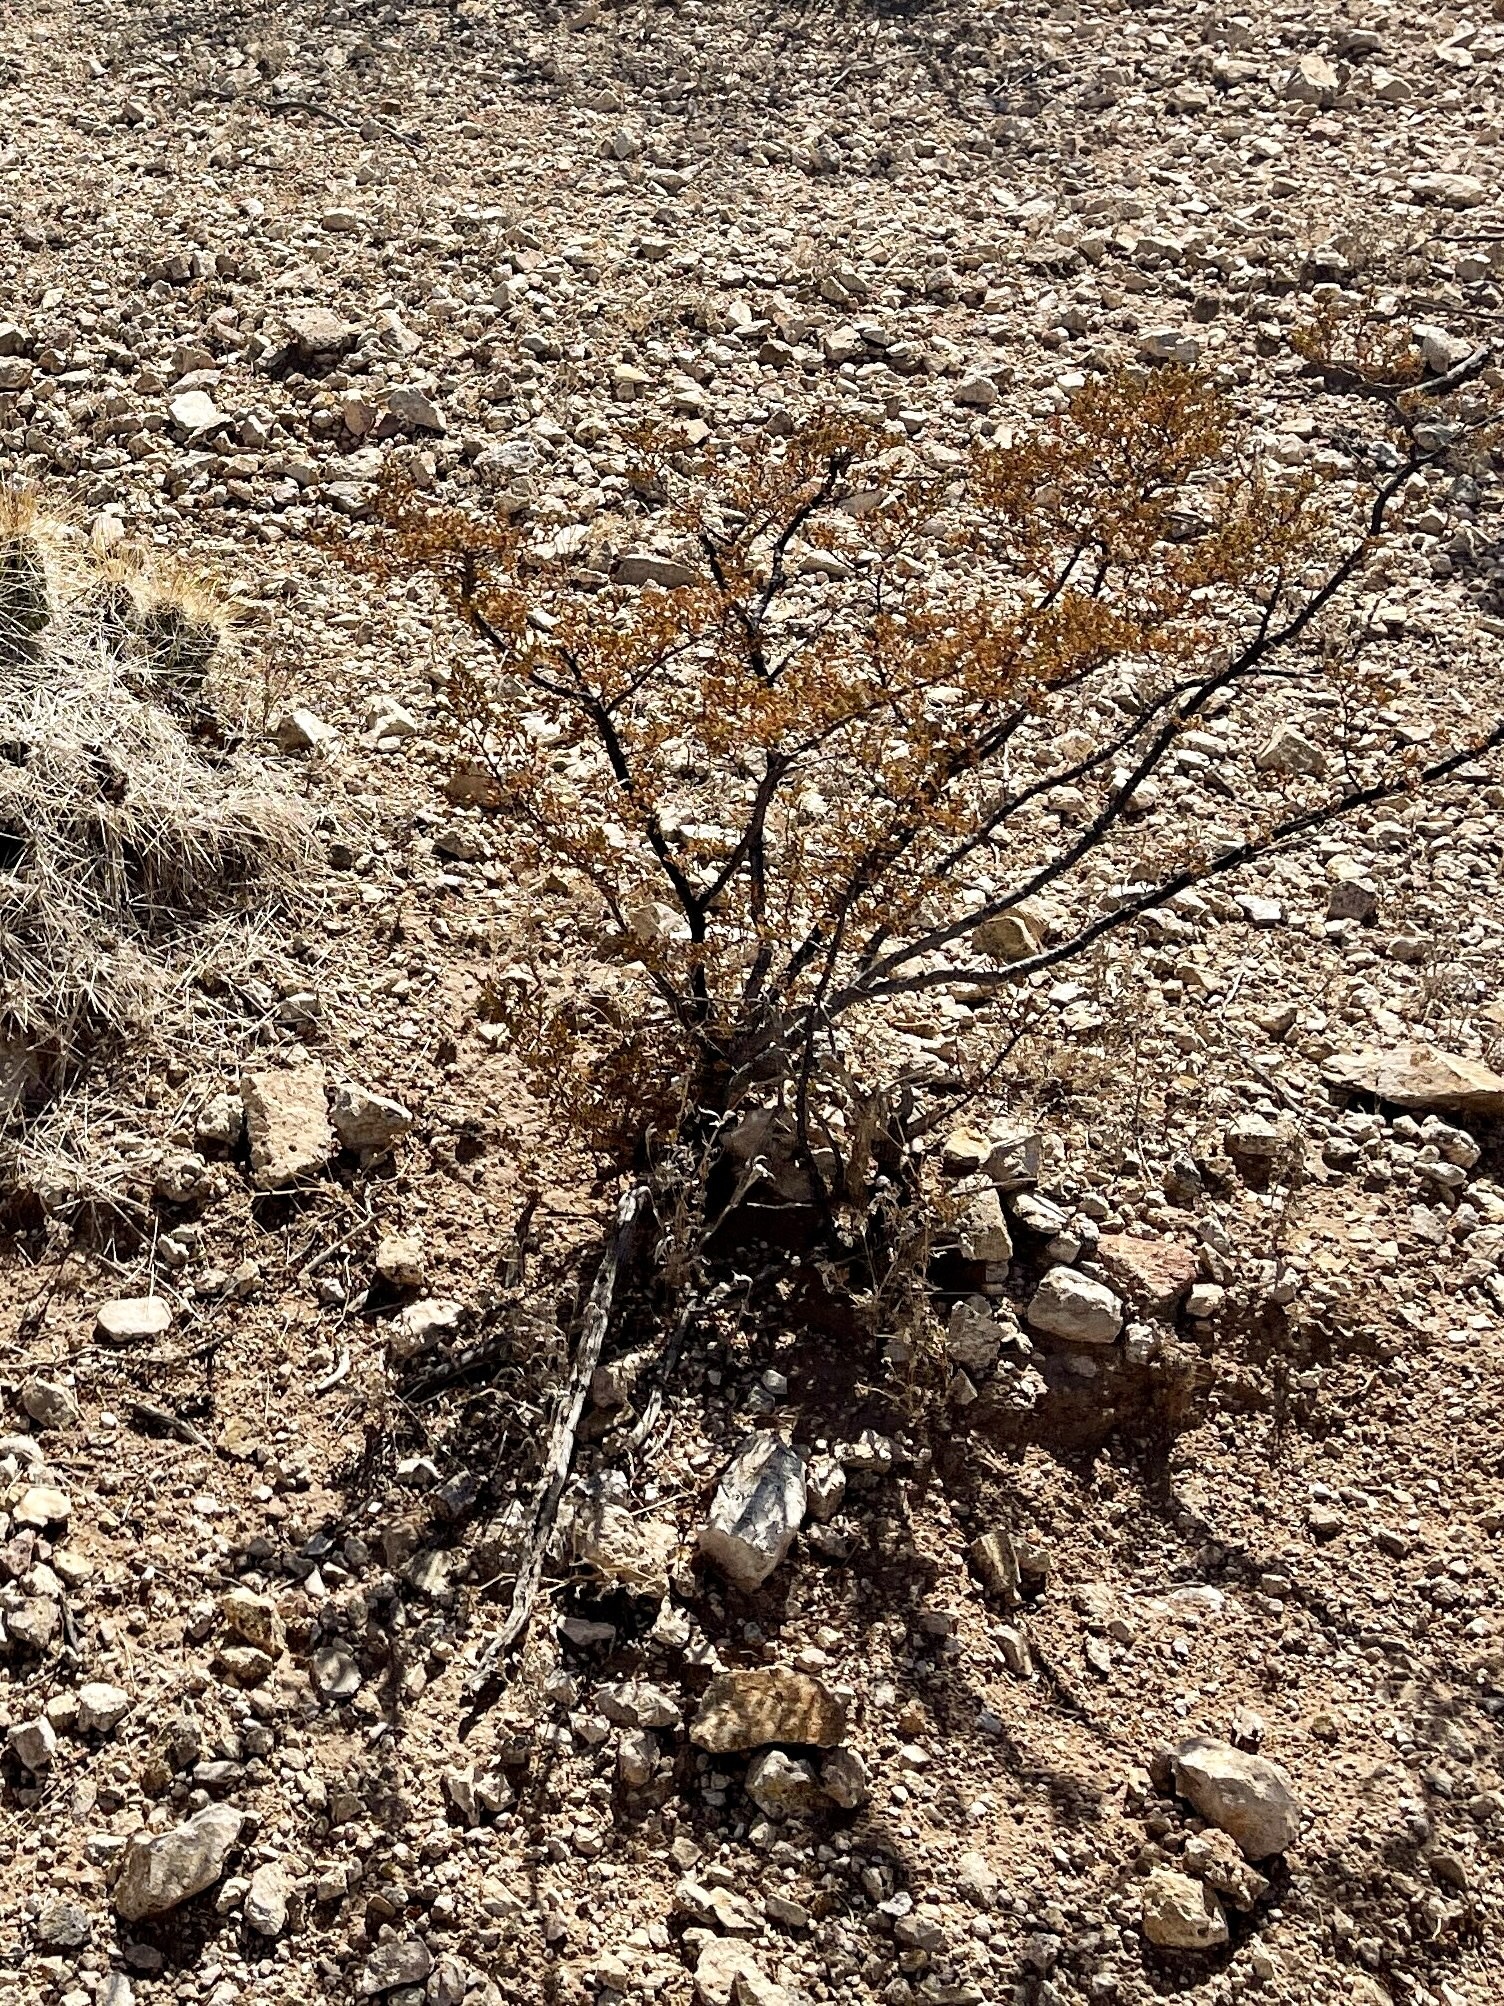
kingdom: Plantae
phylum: Tracheophyta
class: Magnoliopsida
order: Zygophyllales
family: Zygophyllaceae
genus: Larrea
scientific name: Larrea tridentata
